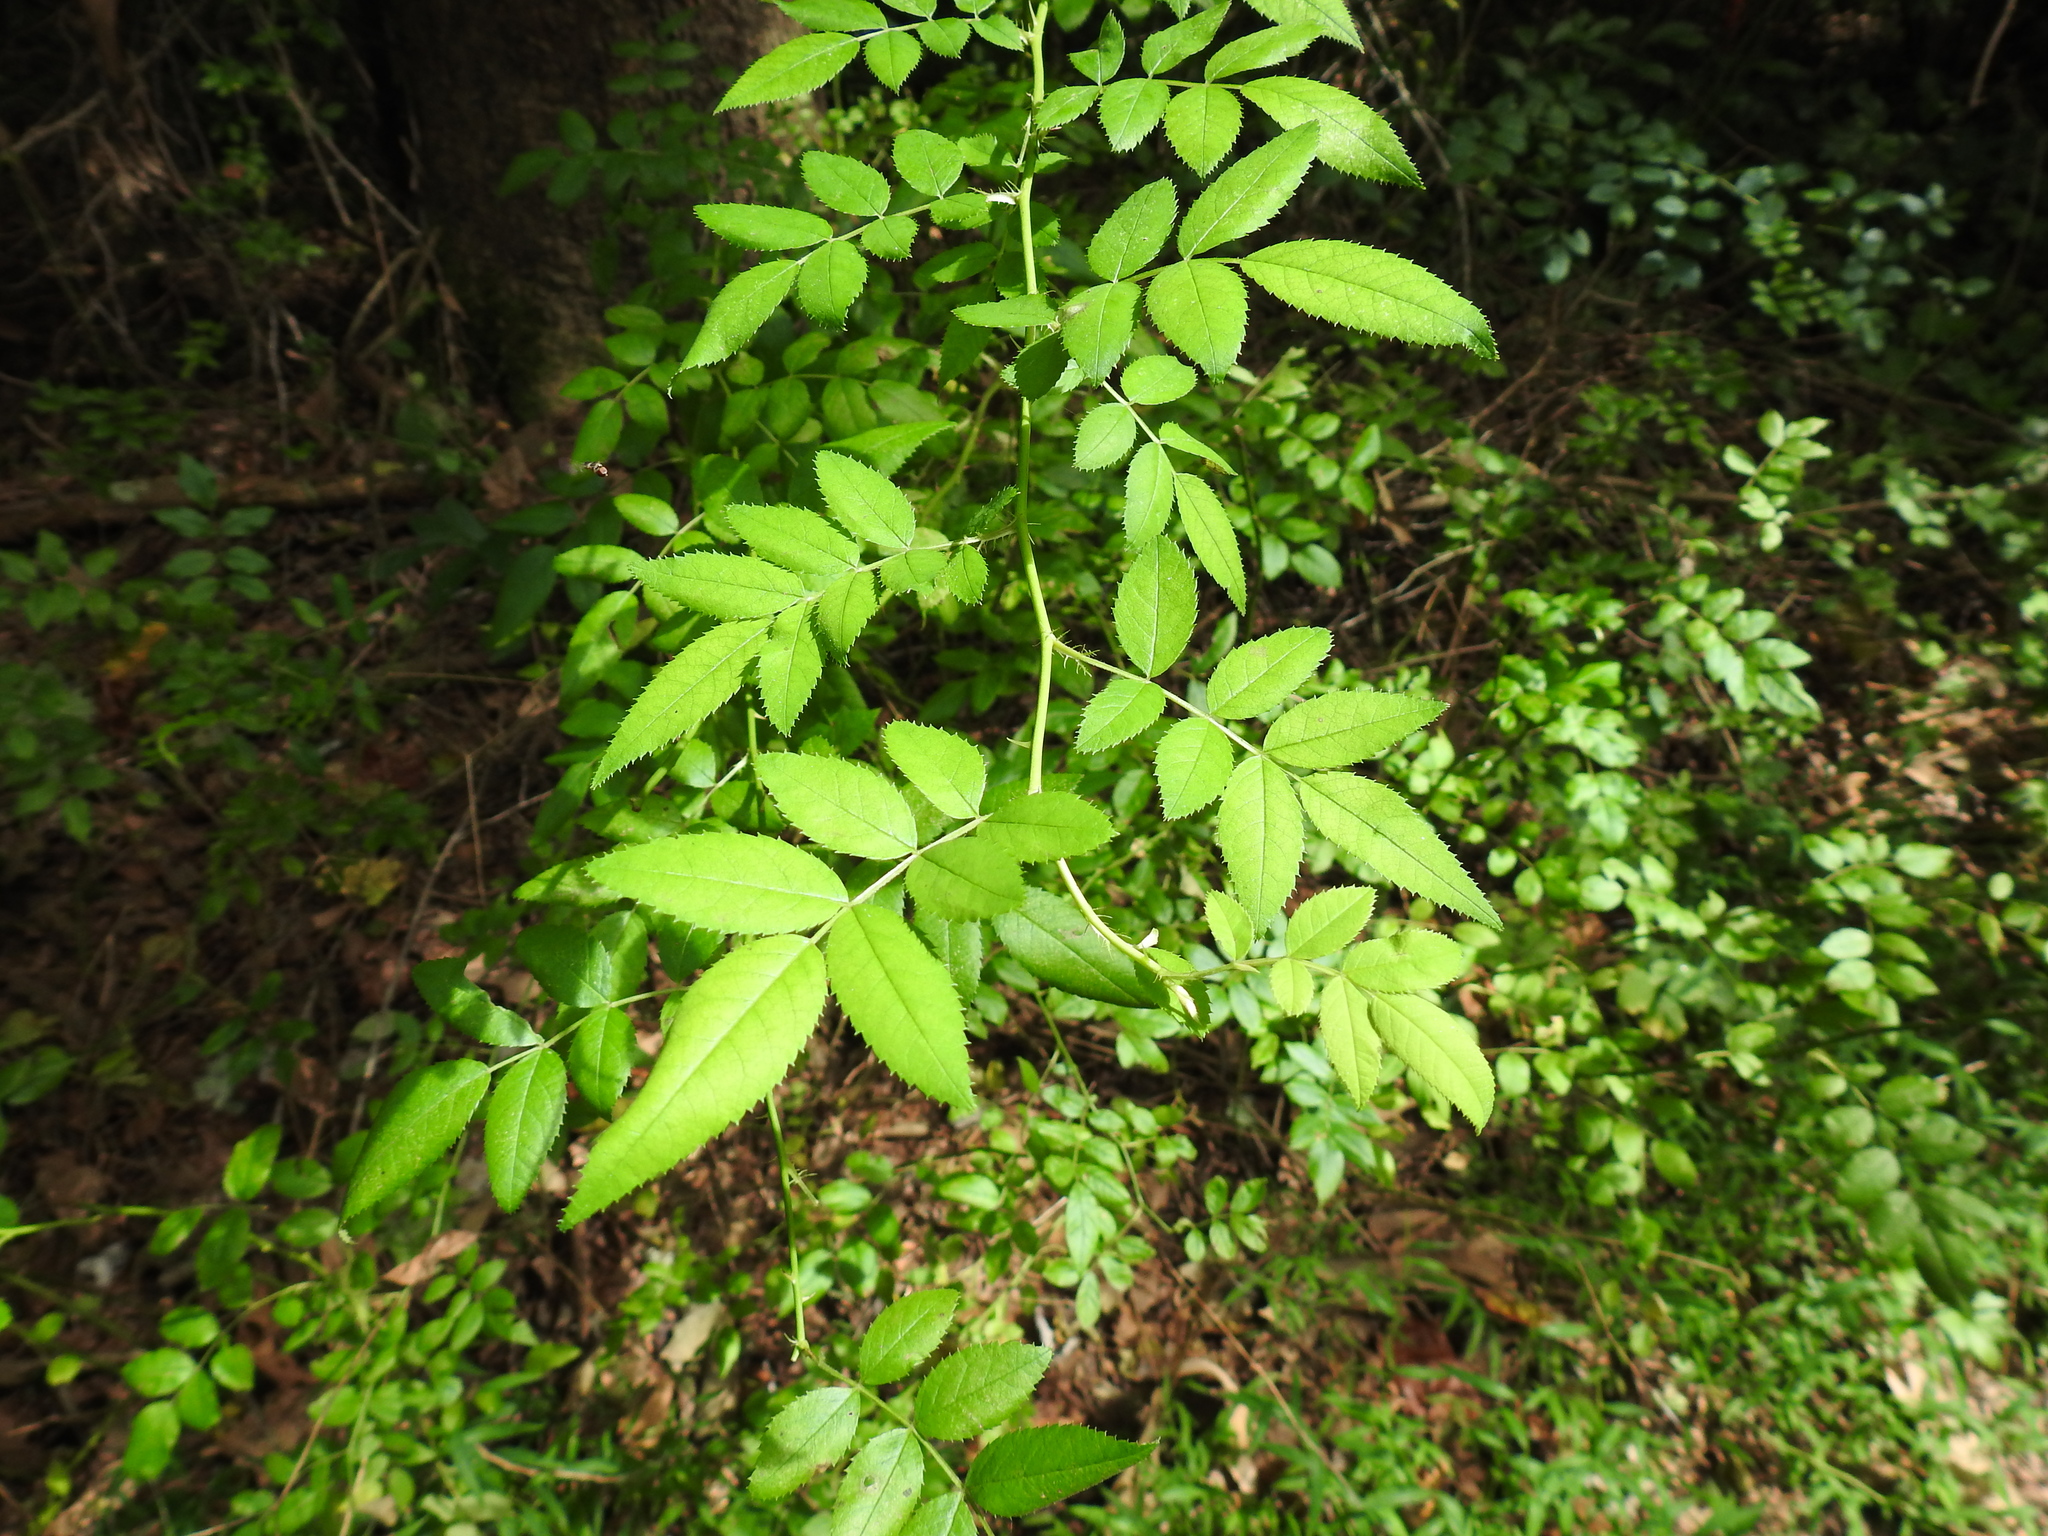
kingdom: Plantae
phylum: Tracheophyta
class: Magnoliopsida
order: Rosales
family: Rosaceae
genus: Rosa
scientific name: Rosa multiflora
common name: Multiflora rose
